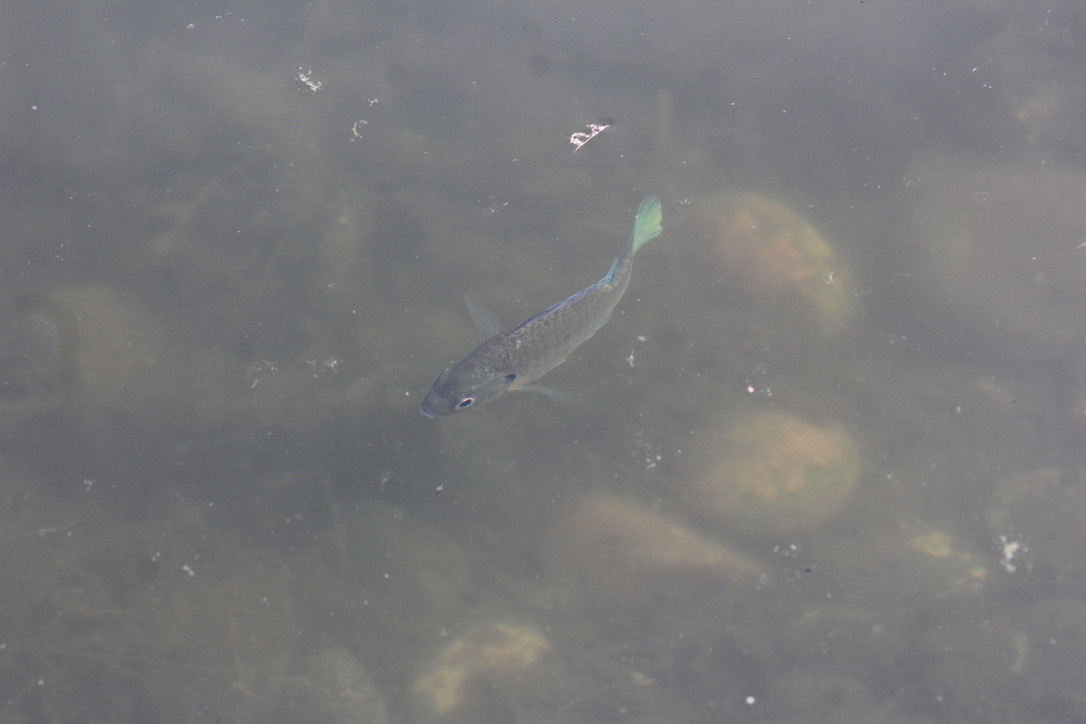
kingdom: Animalia
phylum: Chordata
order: Perciformes
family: Centrarchidae
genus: Lepomis
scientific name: Lepomis macrochirus
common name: Bluegill
